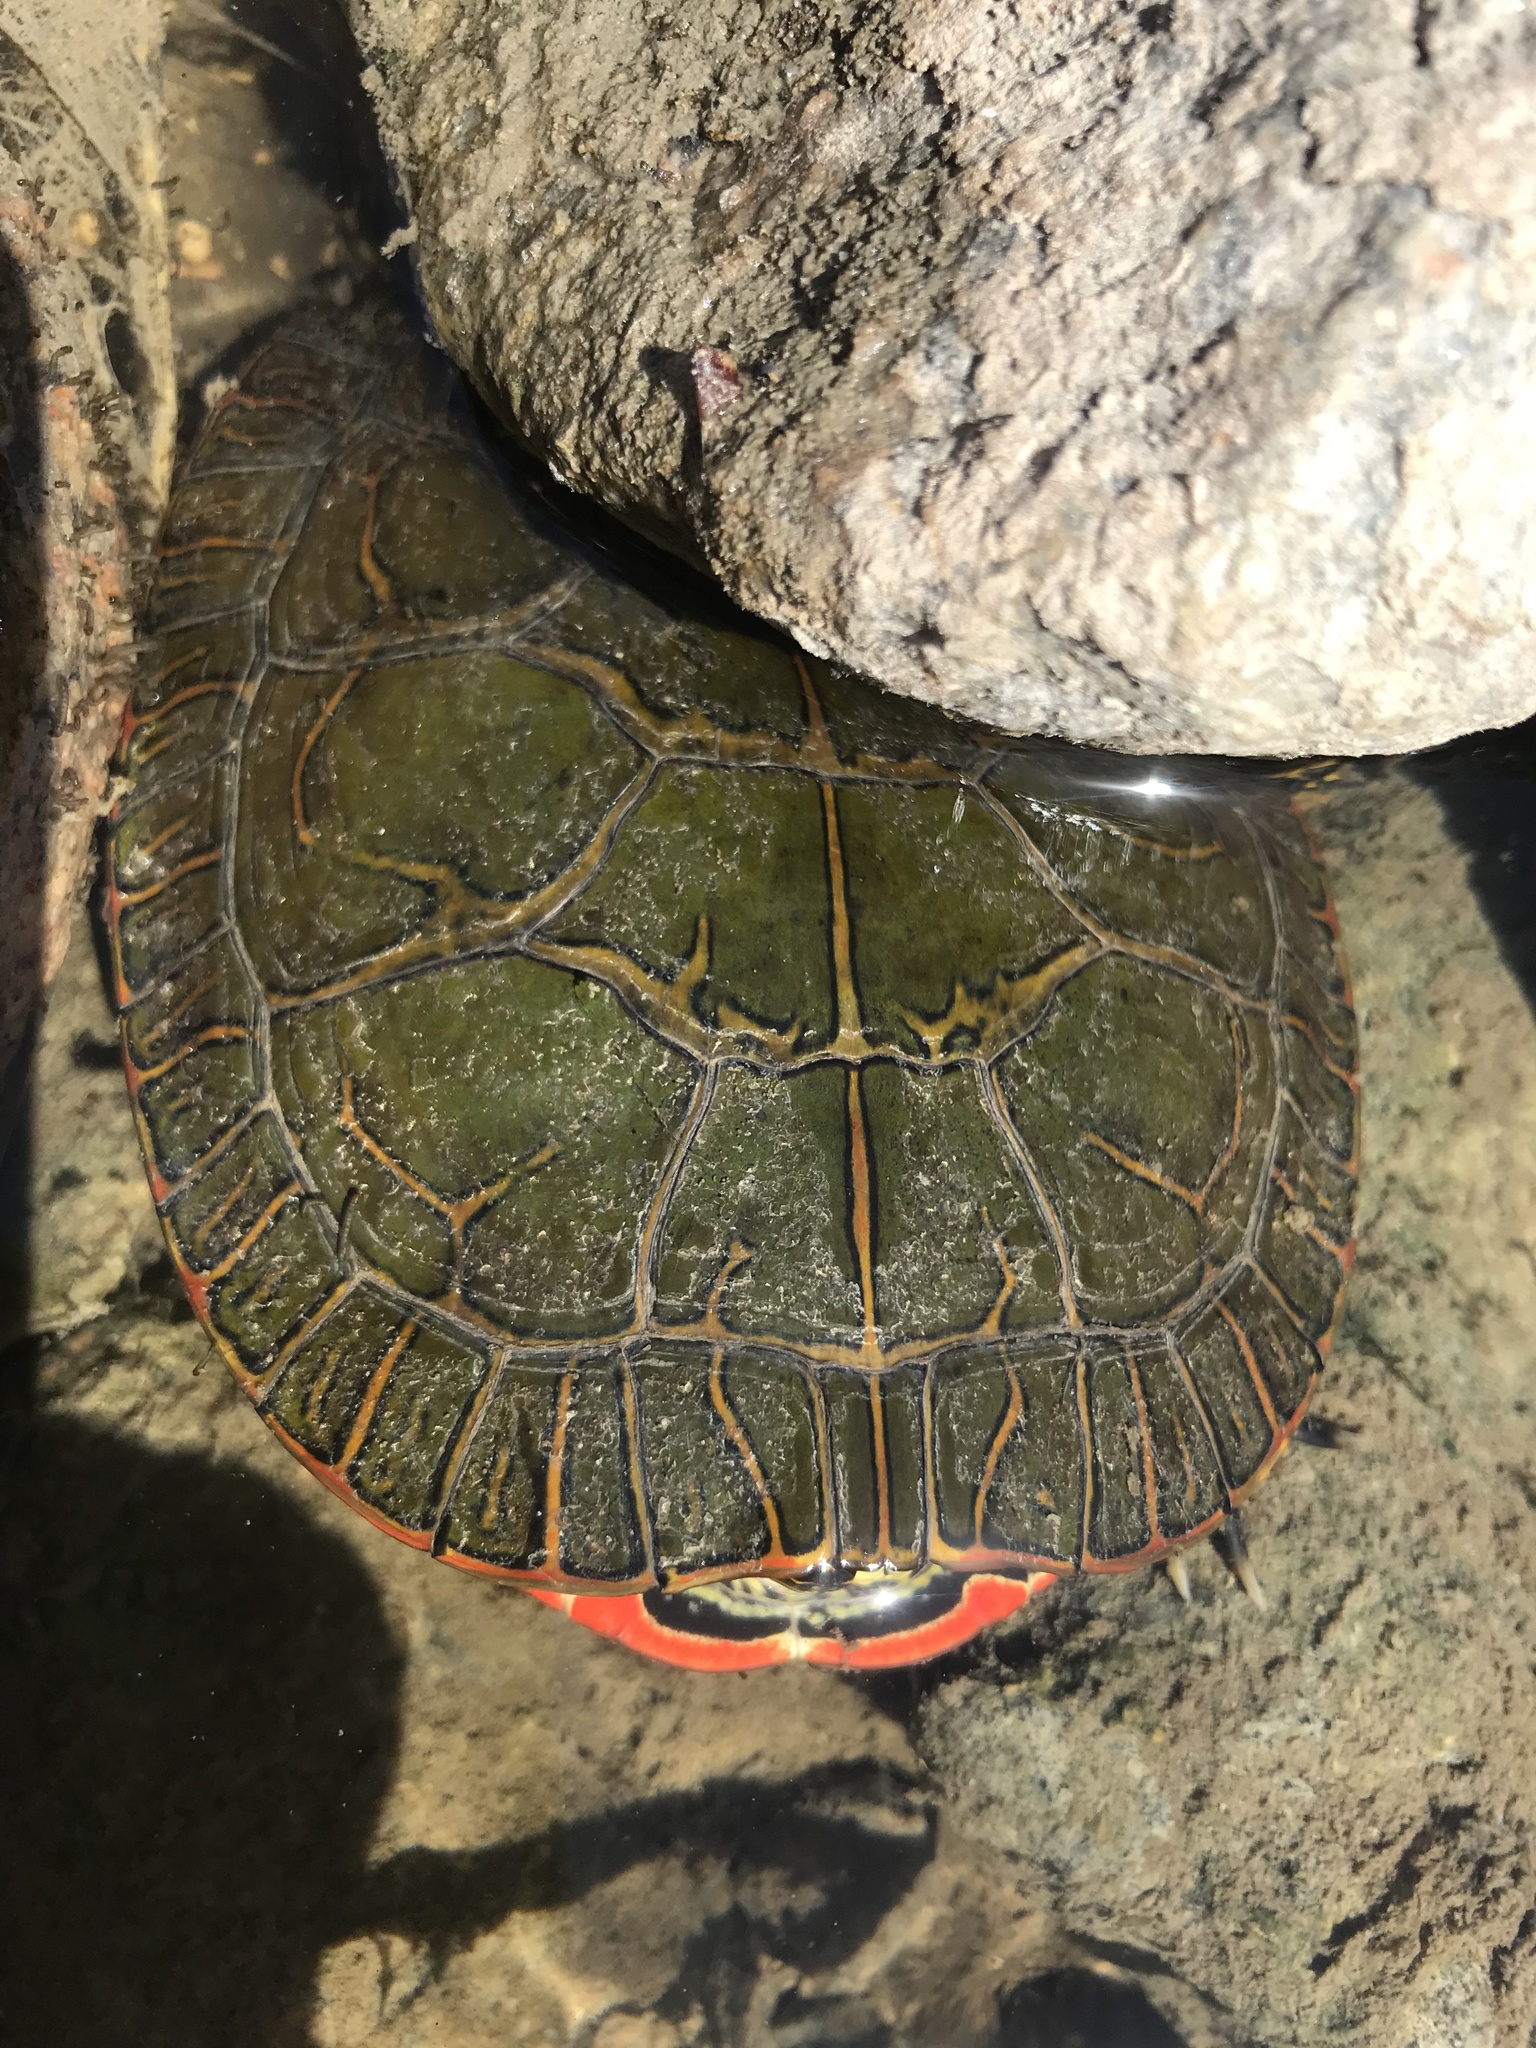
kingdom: Animalia
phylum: Chordata
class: Testudines
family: Emydidae
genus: Chrysemys
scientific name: Chrysemys picta
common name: Painted turtle
